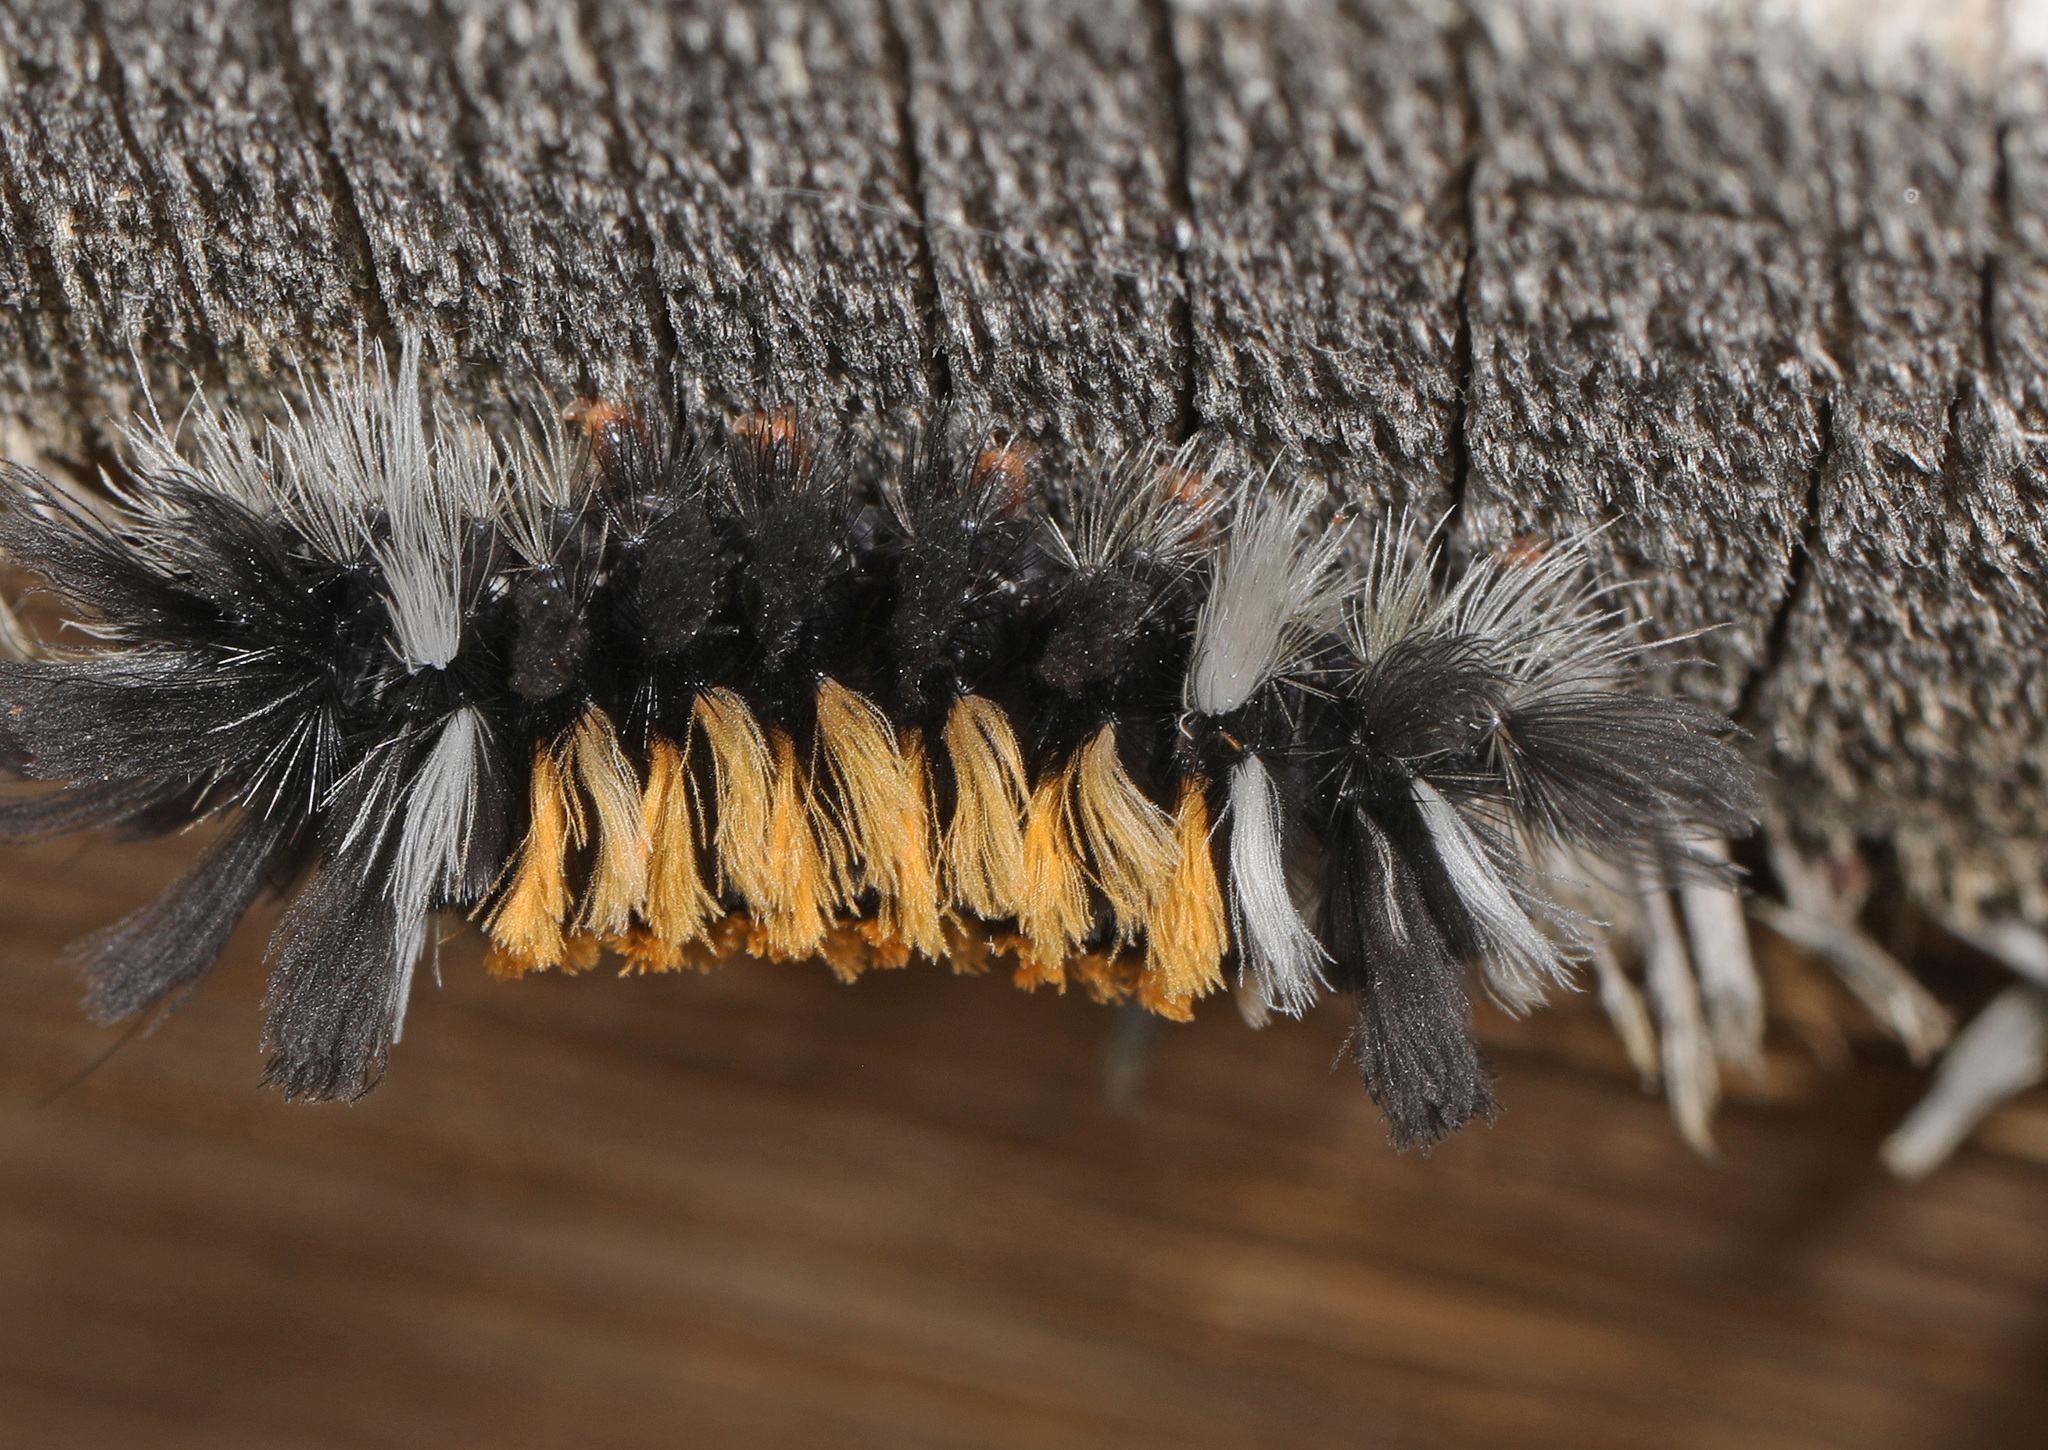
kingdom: Animalia
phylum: Arthropoda
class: Insecta
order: Lepidoptera
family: Erebidae
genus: Euchaetes
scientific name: Euchaetes egle
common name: Milkweed tussock moth
